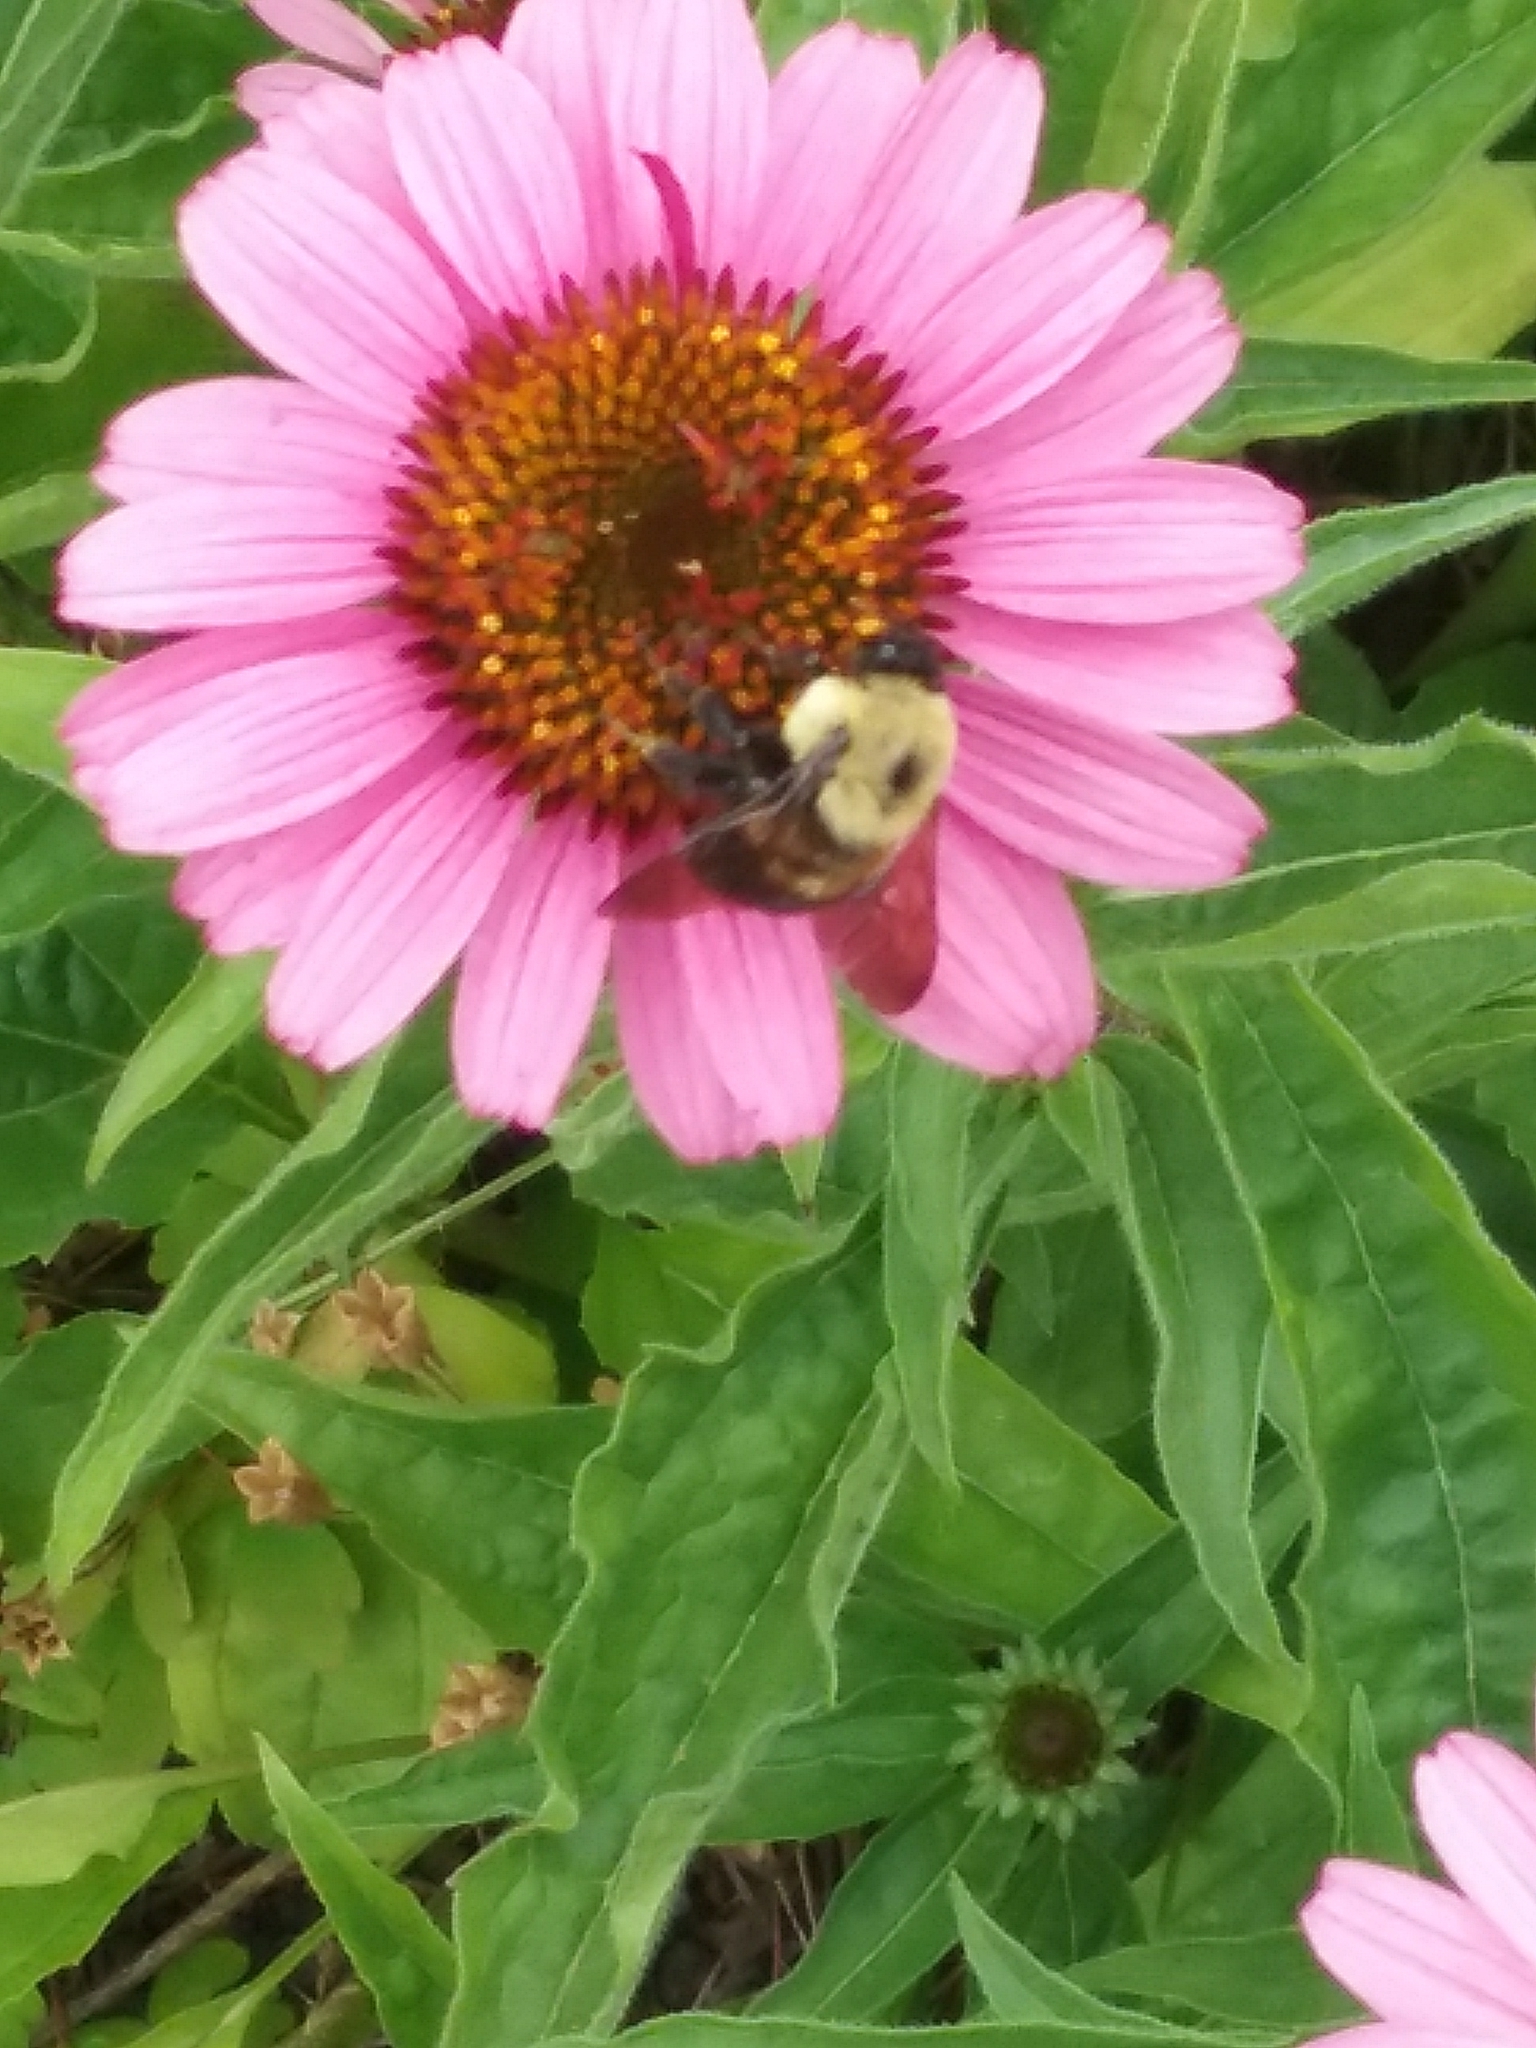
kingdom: Animalia
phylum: Arthropoda
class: Insecta
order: Hymenoptera
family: Apidae
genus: Bombus
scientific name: Bombus griseocollis
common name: Brown-belted bumble bee
